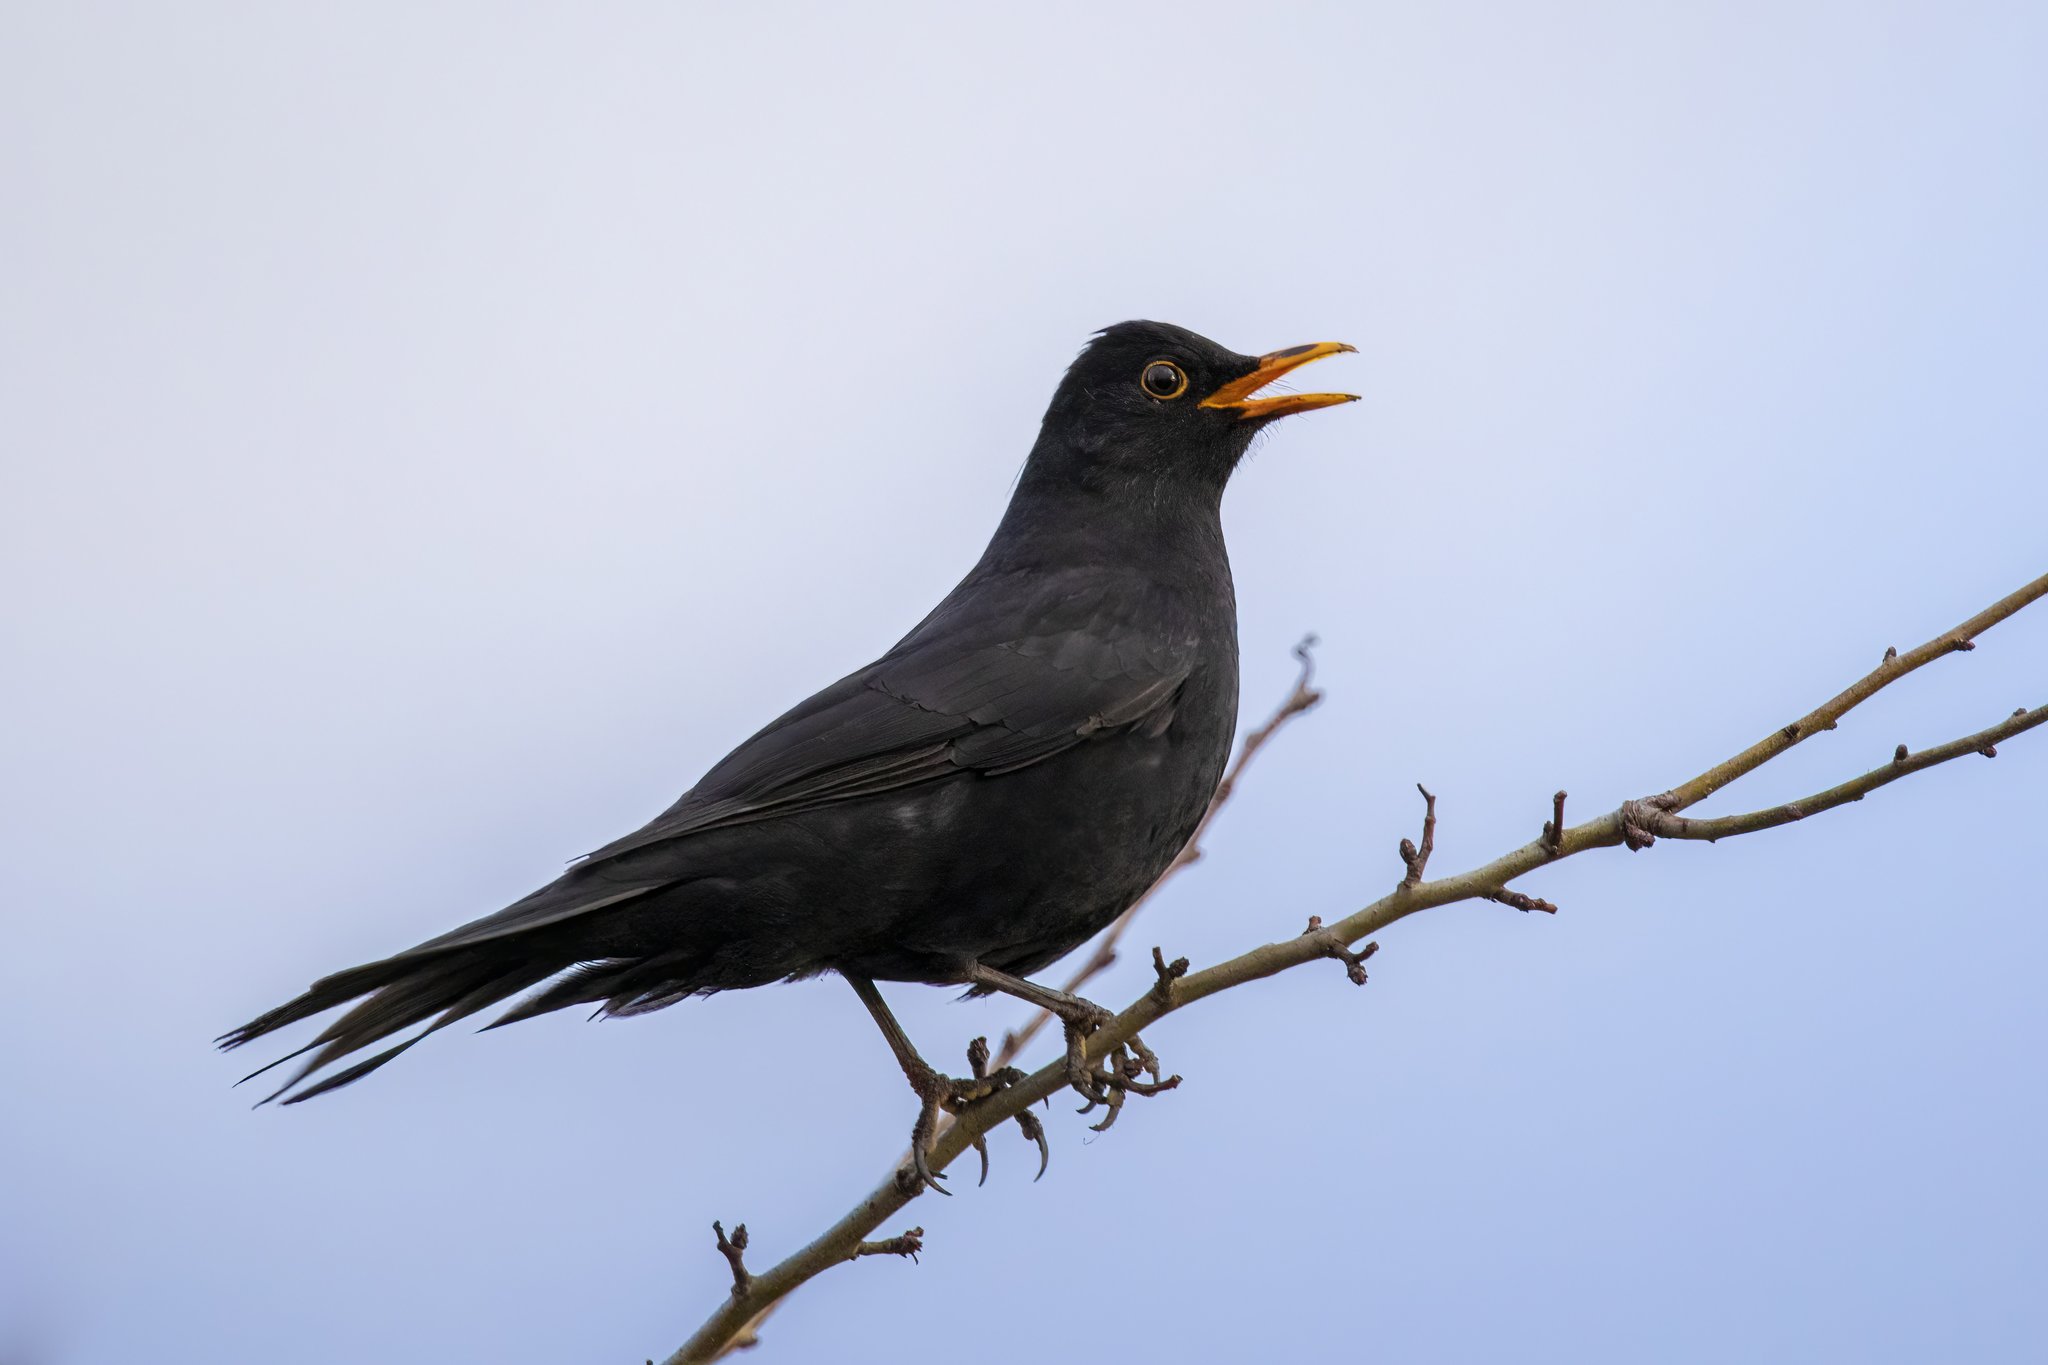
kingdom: Animalia
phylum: Chordata
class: Aves
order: Passeriformes
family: Turdidae
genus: Turdus
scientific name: Turdus merula
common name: Common blackbird
